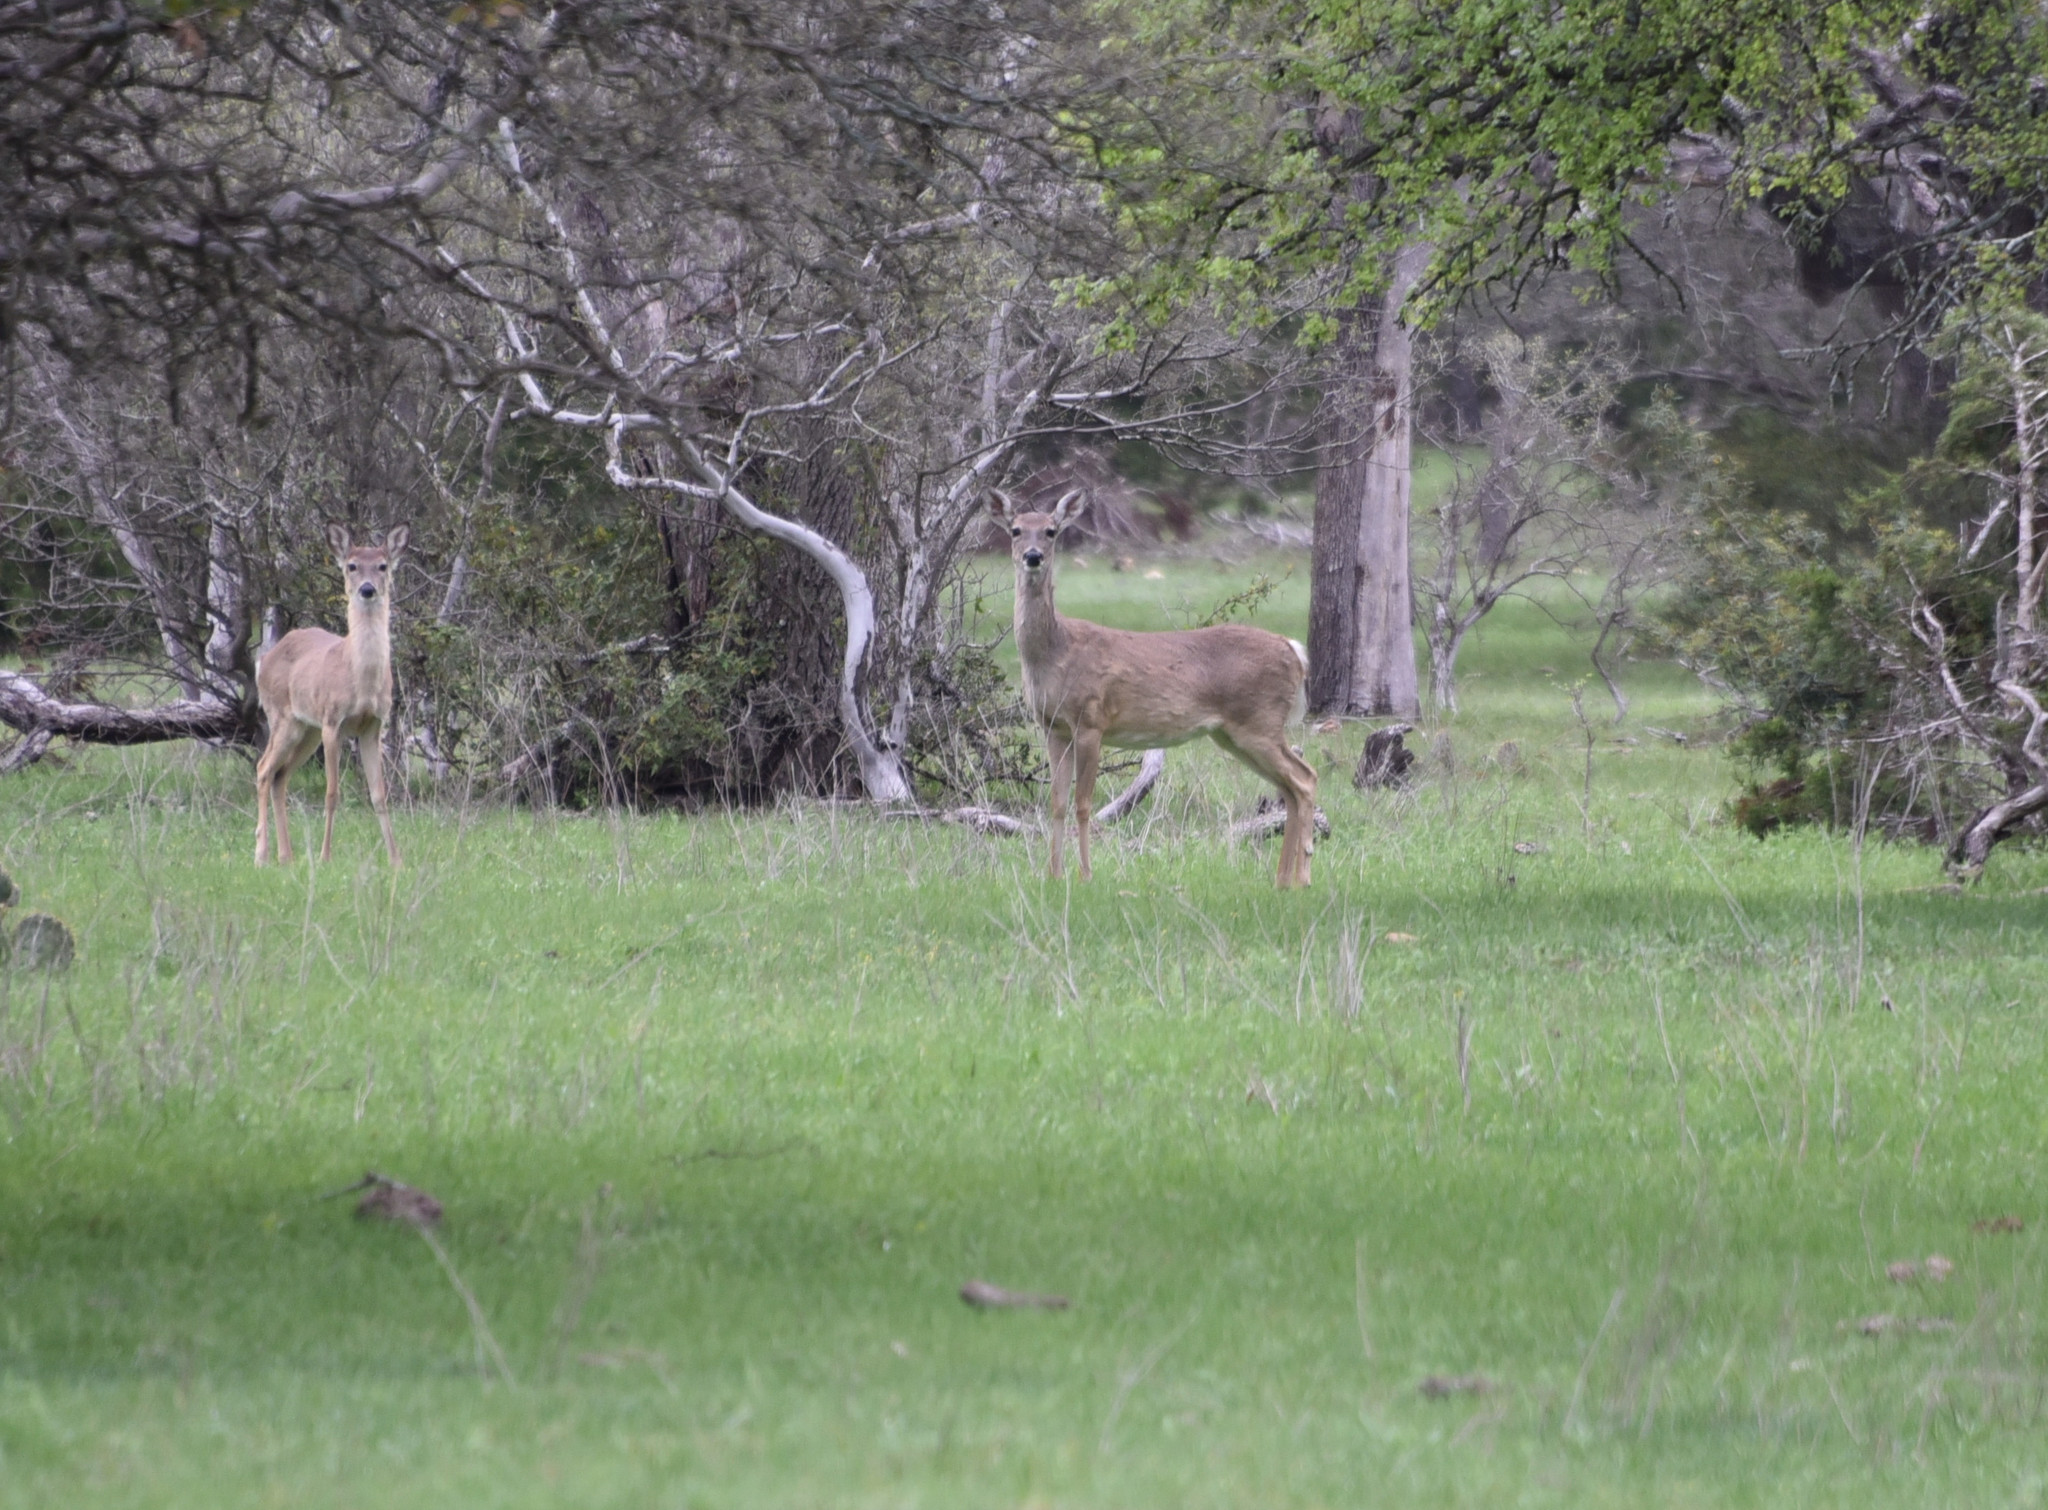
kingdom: Animalia
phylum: Chordata
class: Mammalia
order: Artiodactyla
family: Cervidae
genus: Odocoileus
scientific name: Odocoileus virginianus
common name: White-tailed deer
